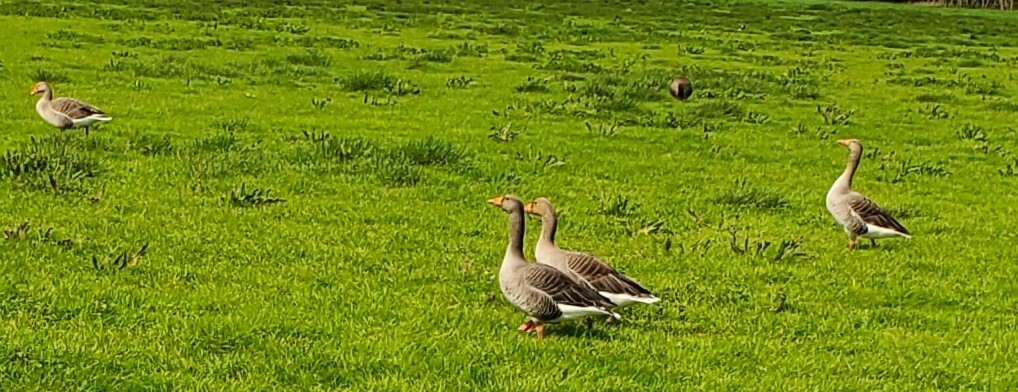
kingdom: Animalia
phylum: Chordata
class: Aves
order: Anseriformes
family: Anatidae
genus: Anser
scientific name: Anser anser
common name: Greylag goose
